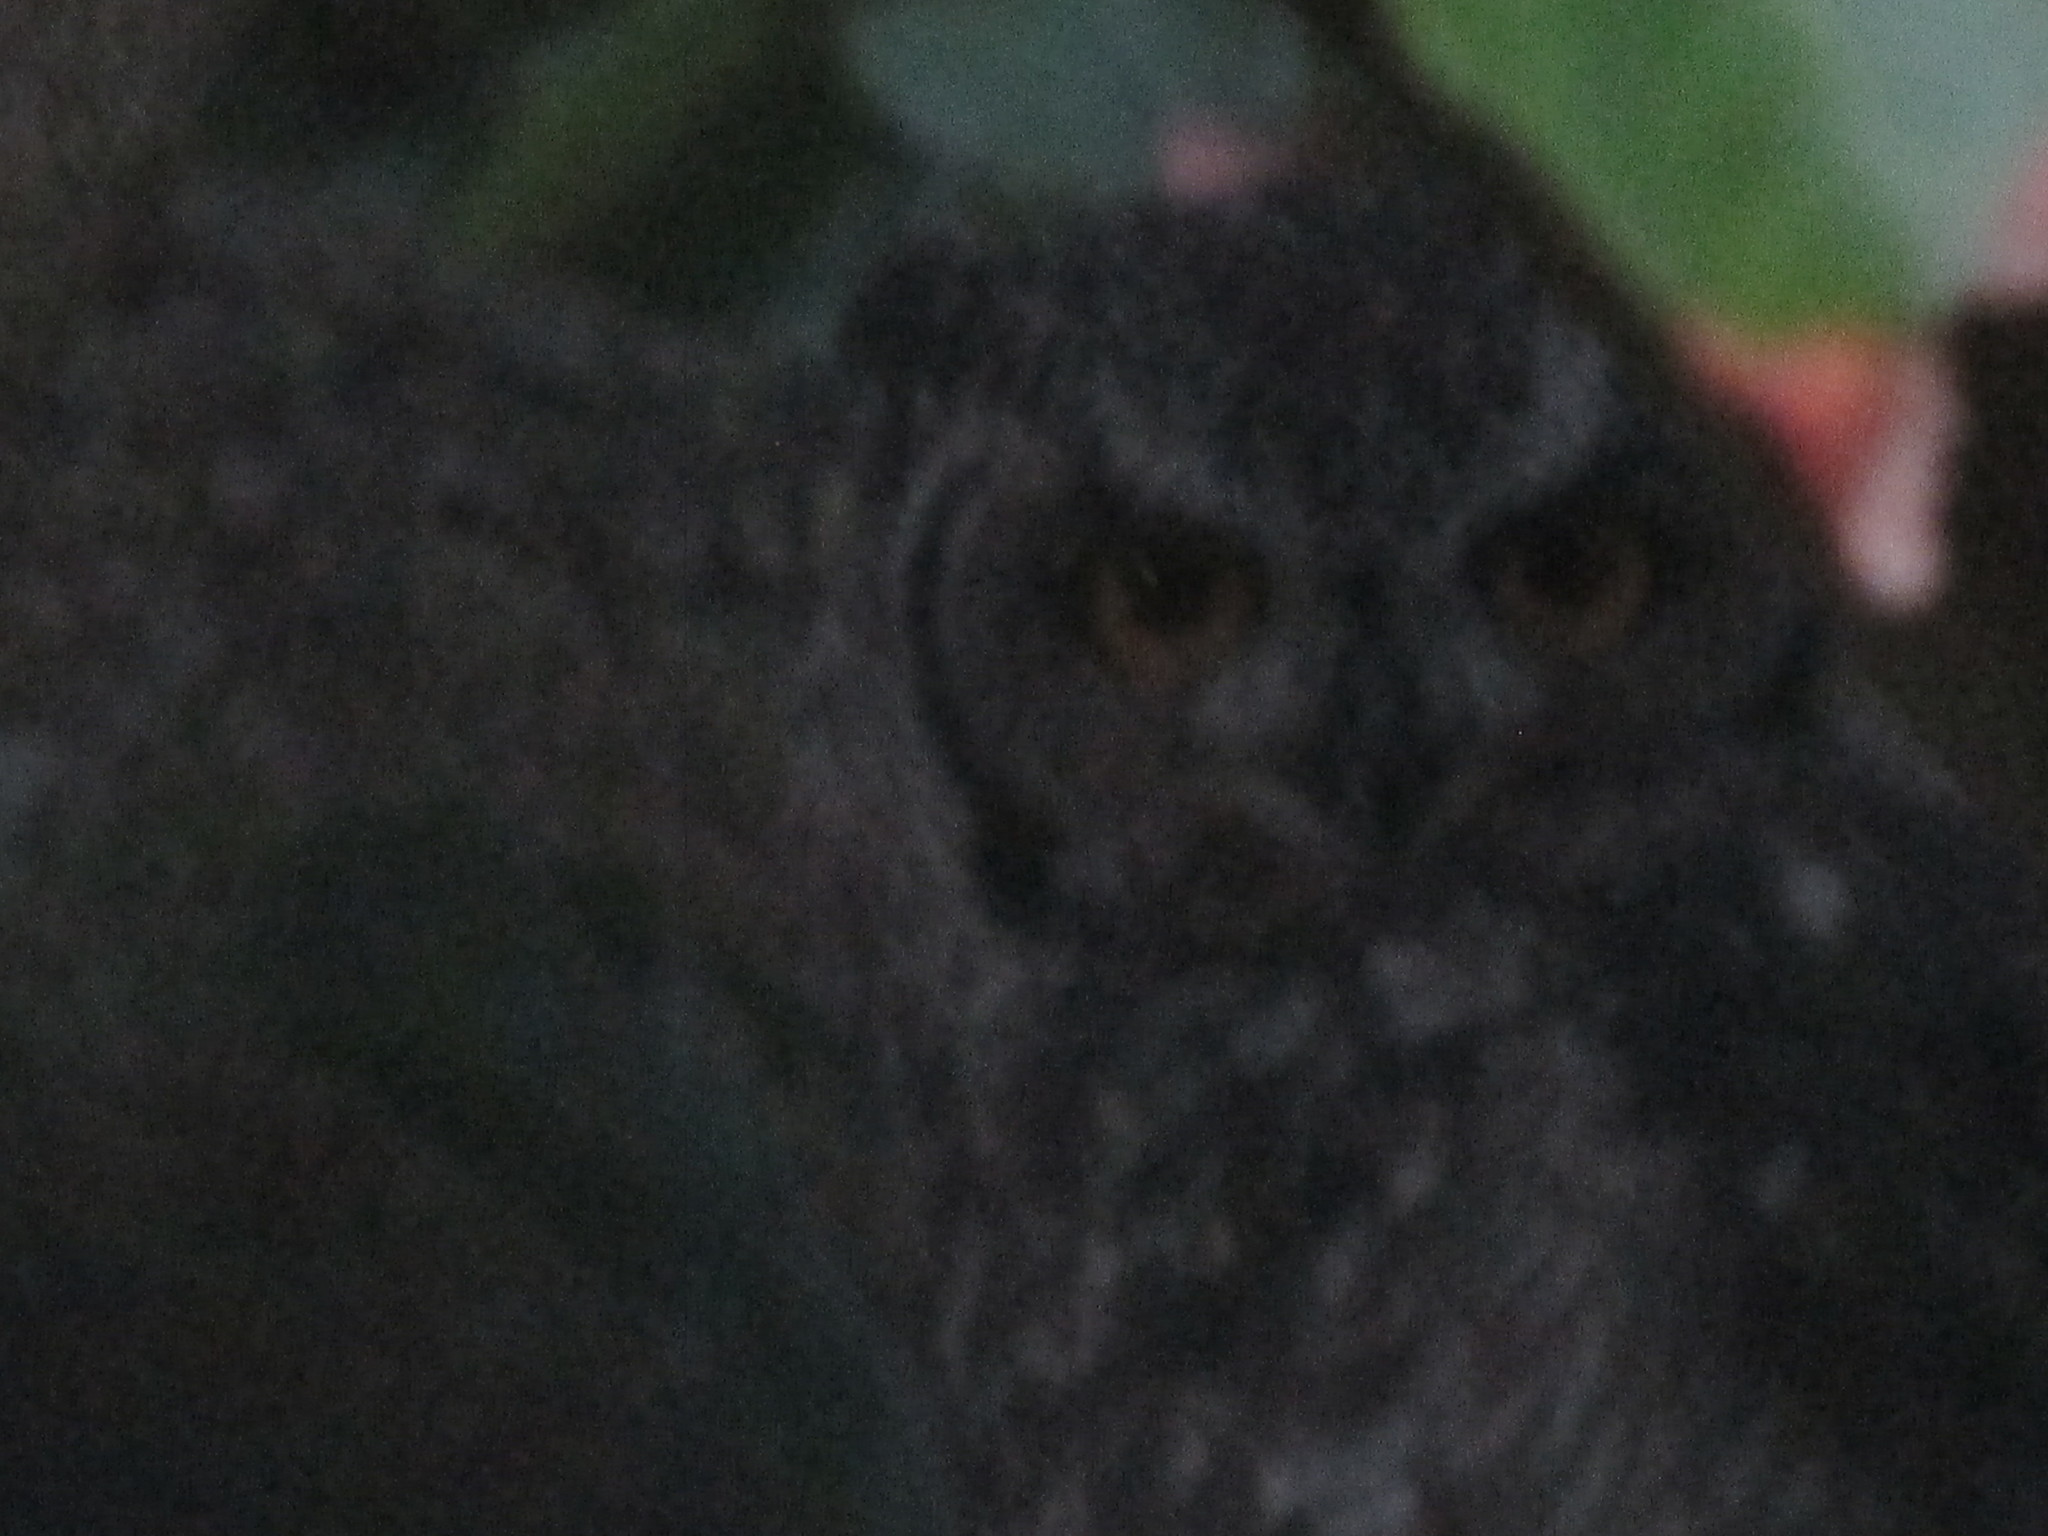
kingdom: Animalia
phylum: Chordata
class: Aves
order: Strigiformes
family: Strigidae
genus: Bubo
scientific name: Bubo africanus
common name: Spotted eagle-owl
